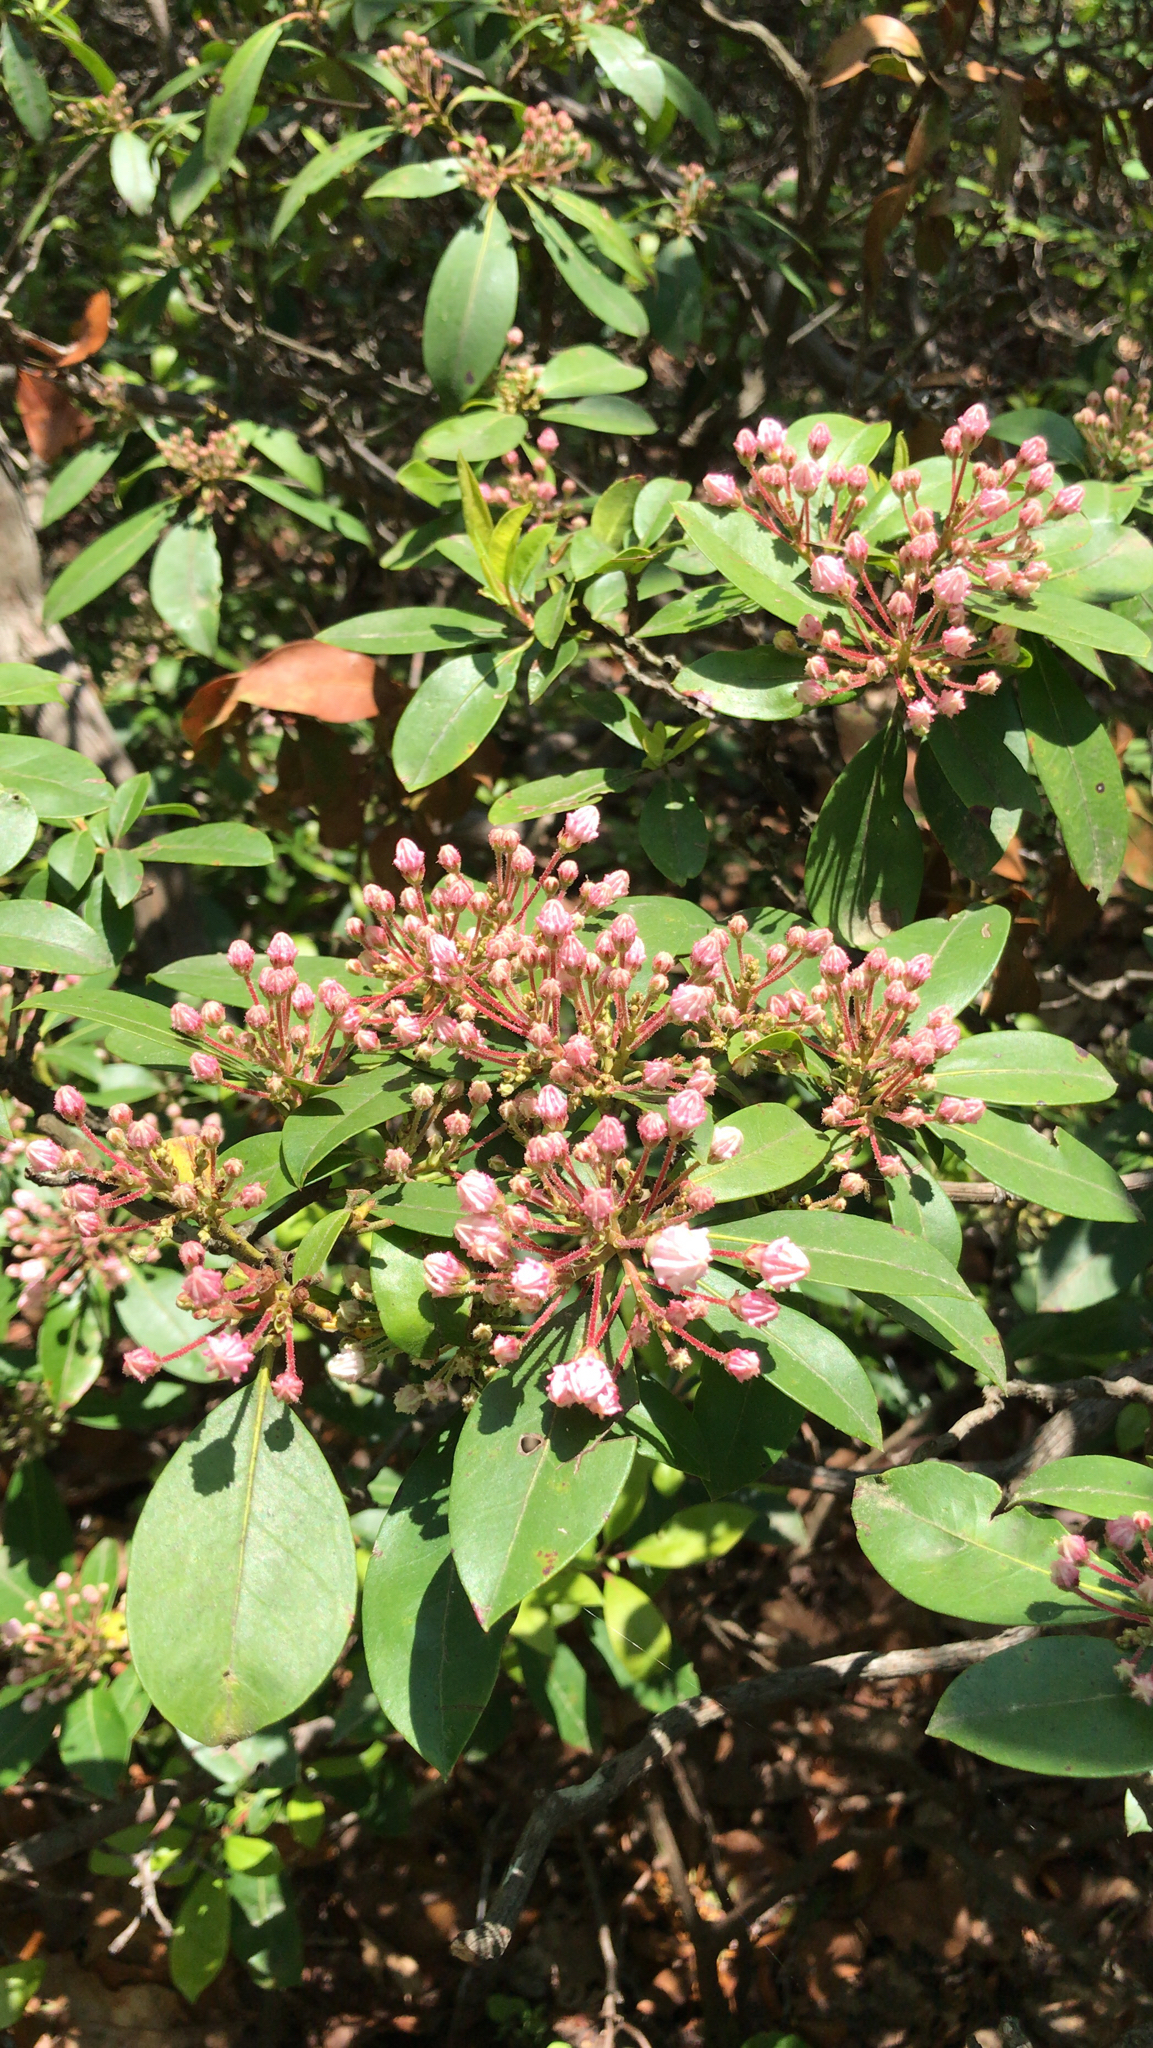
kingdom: Plantae
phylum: Tracheophyta
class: Magnoliopsida
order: Ericales
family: Ericaceae
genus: Kalmia
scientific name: Kalmia latifolia
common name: Mountain-laurel
